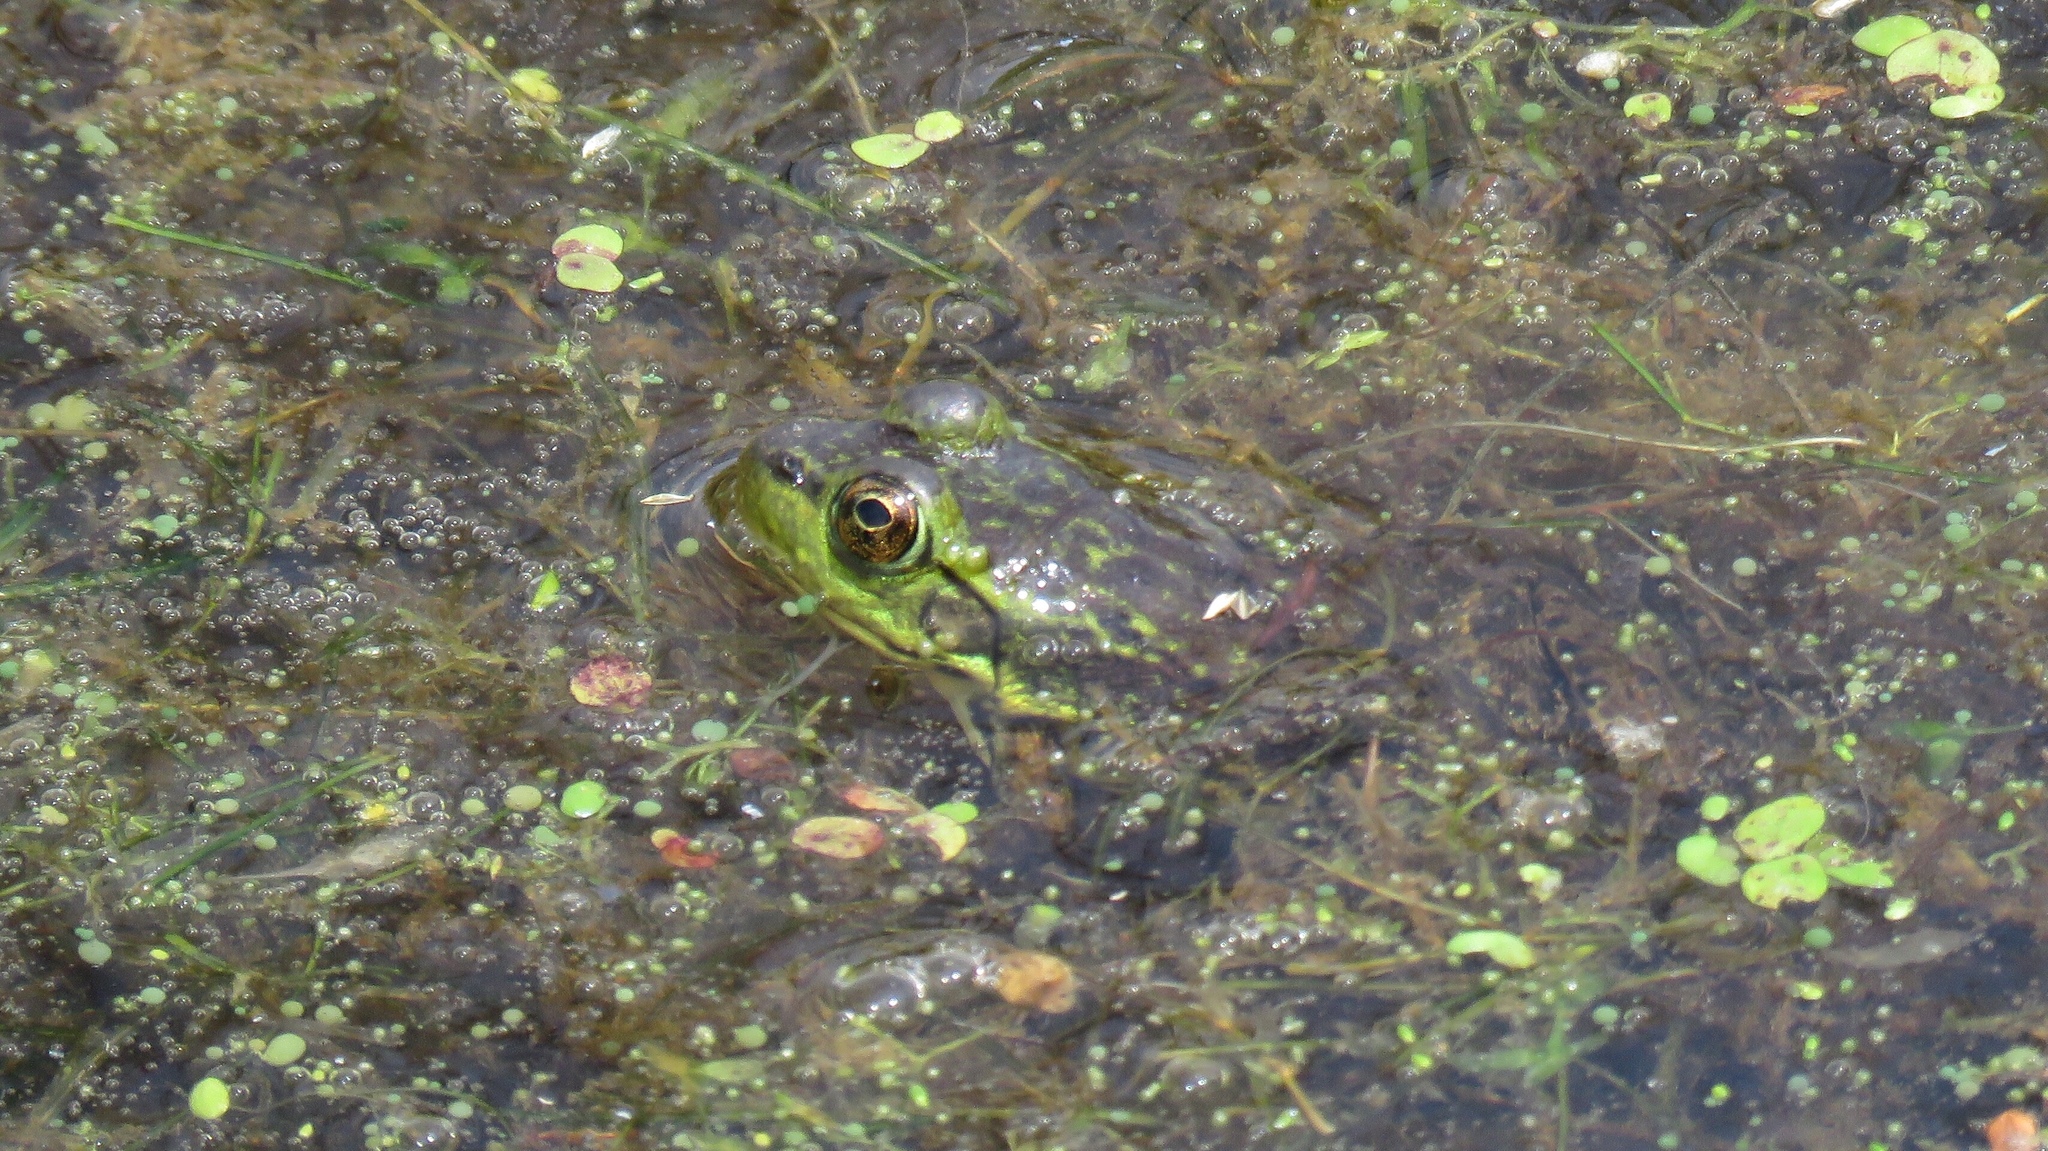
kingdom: Animalia
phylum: Chordata
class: Amphibia
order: Anura
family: Ranidae
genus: Lithobates
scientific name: Lithobates septentrionalis
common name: Mink frog
